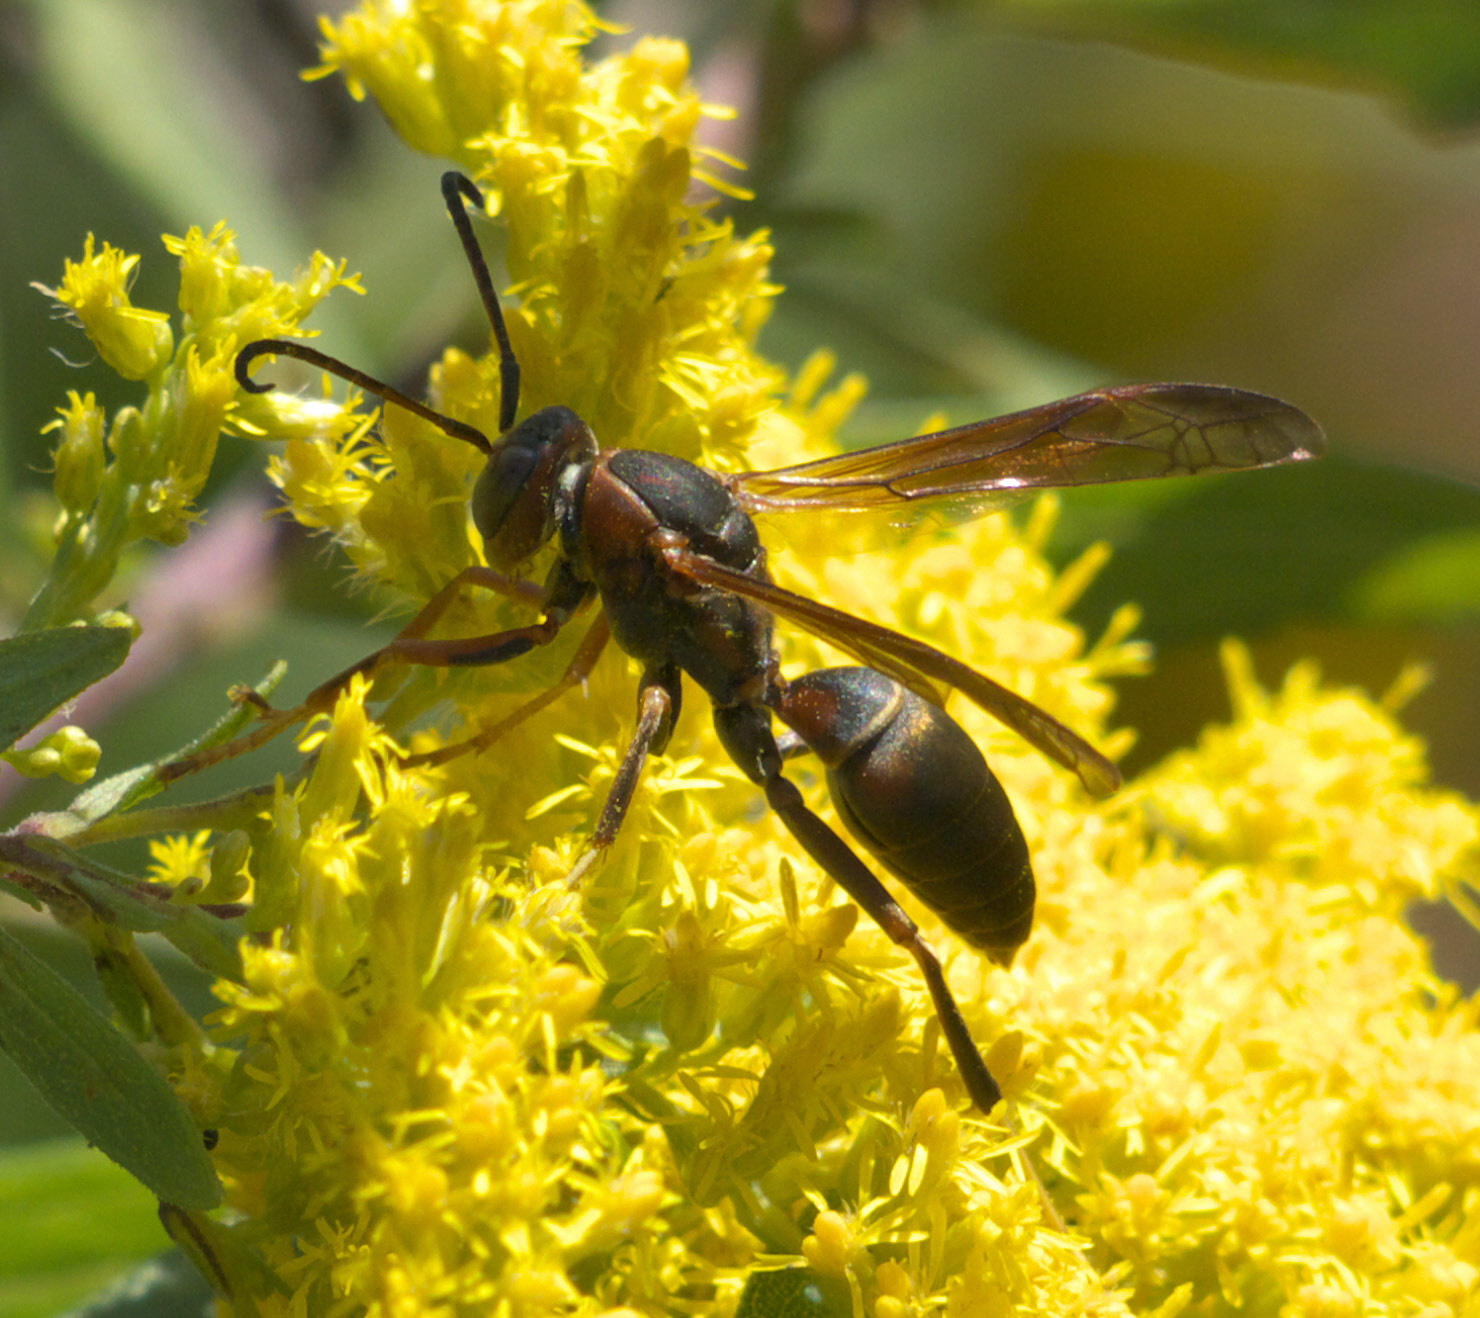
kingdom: Animalia
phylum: Arthropoda
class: Insecta
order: Hymenoptera
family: Eumenidae
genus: Polistes
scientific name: Polistes fuscatus
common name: Dark paper wasp
